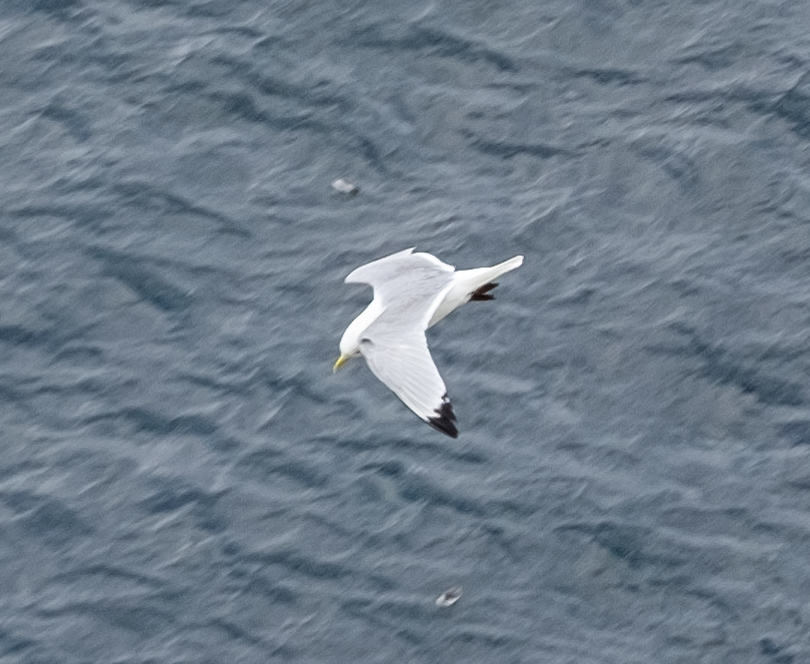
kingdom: Animalia
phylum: Chordata
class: Aves
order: Charadriiformes
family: Laridae
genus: Rissa
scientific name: Rissa tridactyla
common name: Black-legged kittiwake
